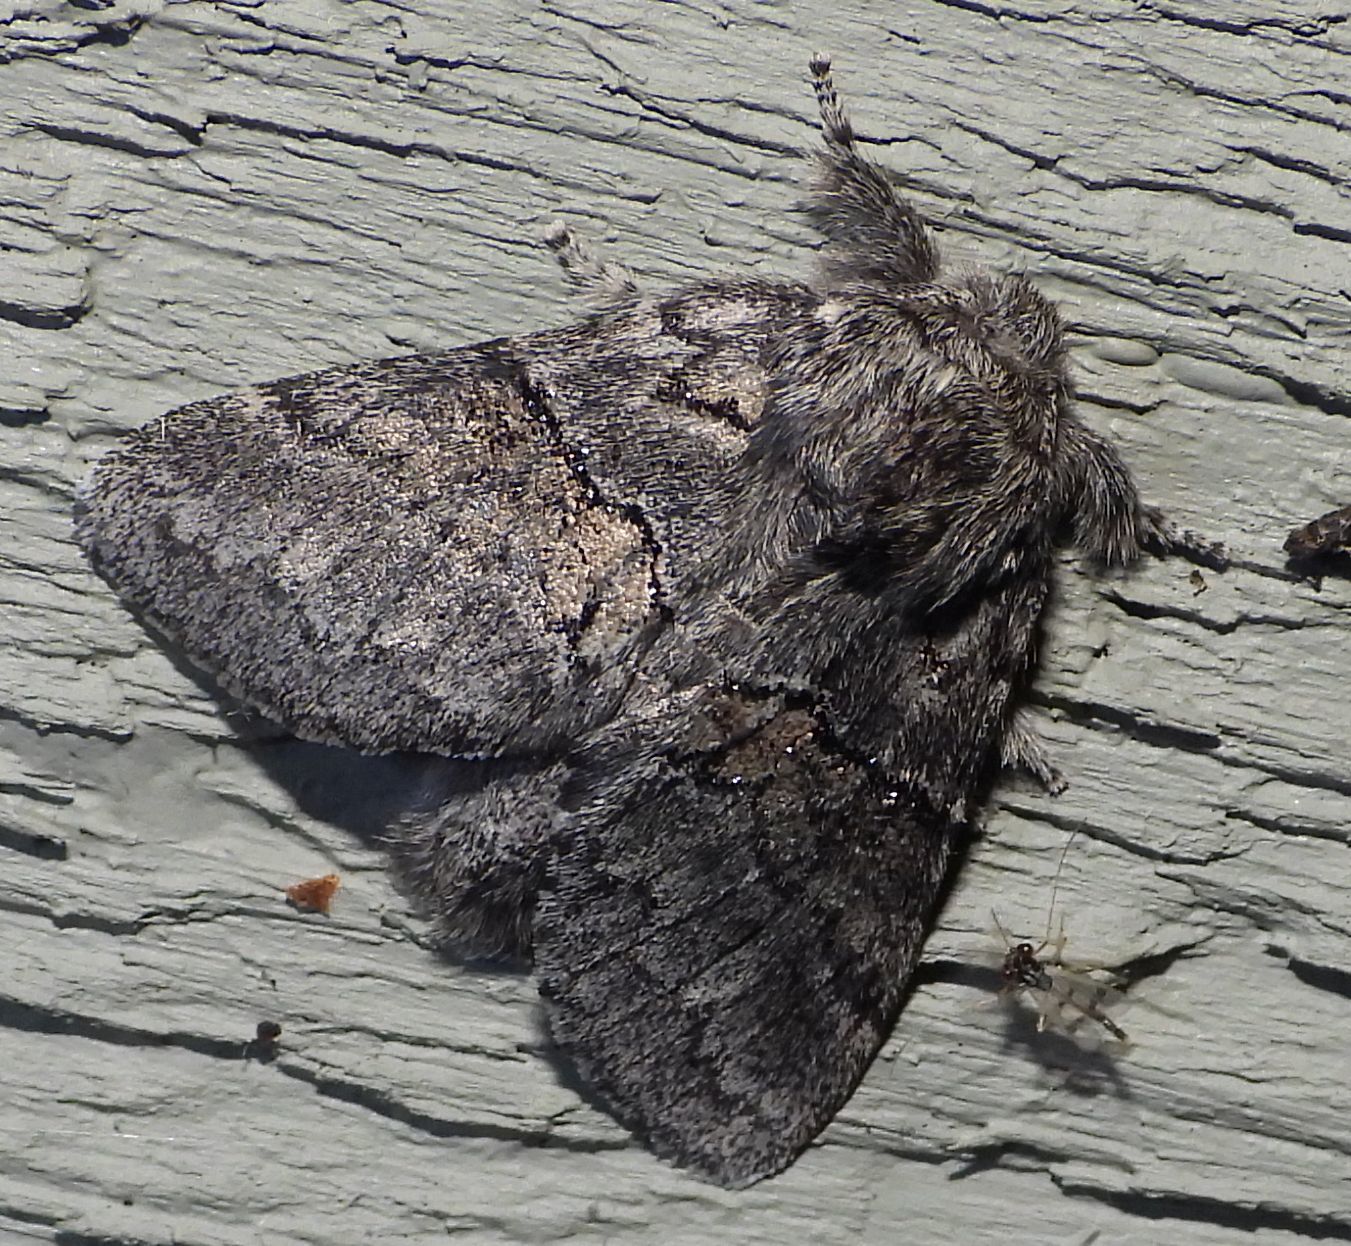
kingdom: Animalia
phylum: Arthropoda
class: Insecta
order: Lepidoptera
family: Notodontidae
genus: Gluphisia
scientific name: Gluphisia septentrionis
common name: Common gluphisia
